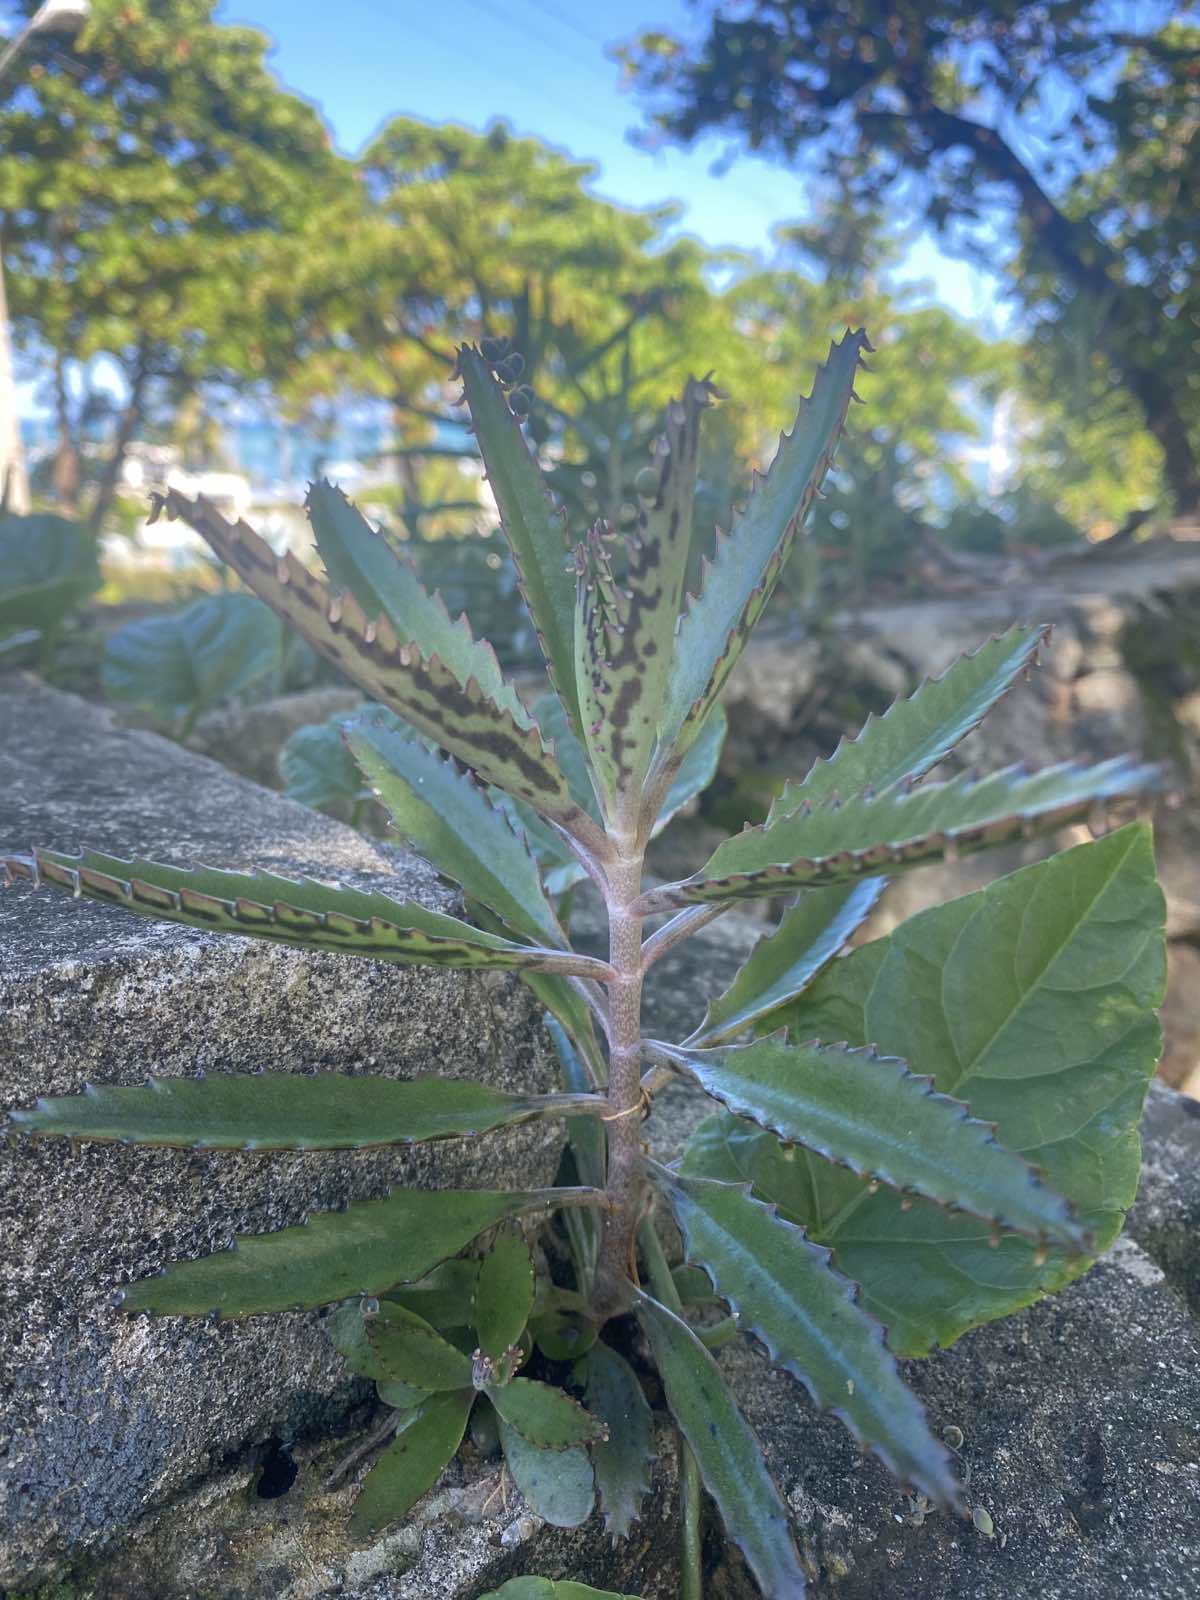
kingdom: Plantae
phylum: Tracheophyta
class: Magnoliopsida
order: Saxifragales
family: Crassulaceae
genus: Kalanchoe
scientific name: Kalanchoe houghtonii
